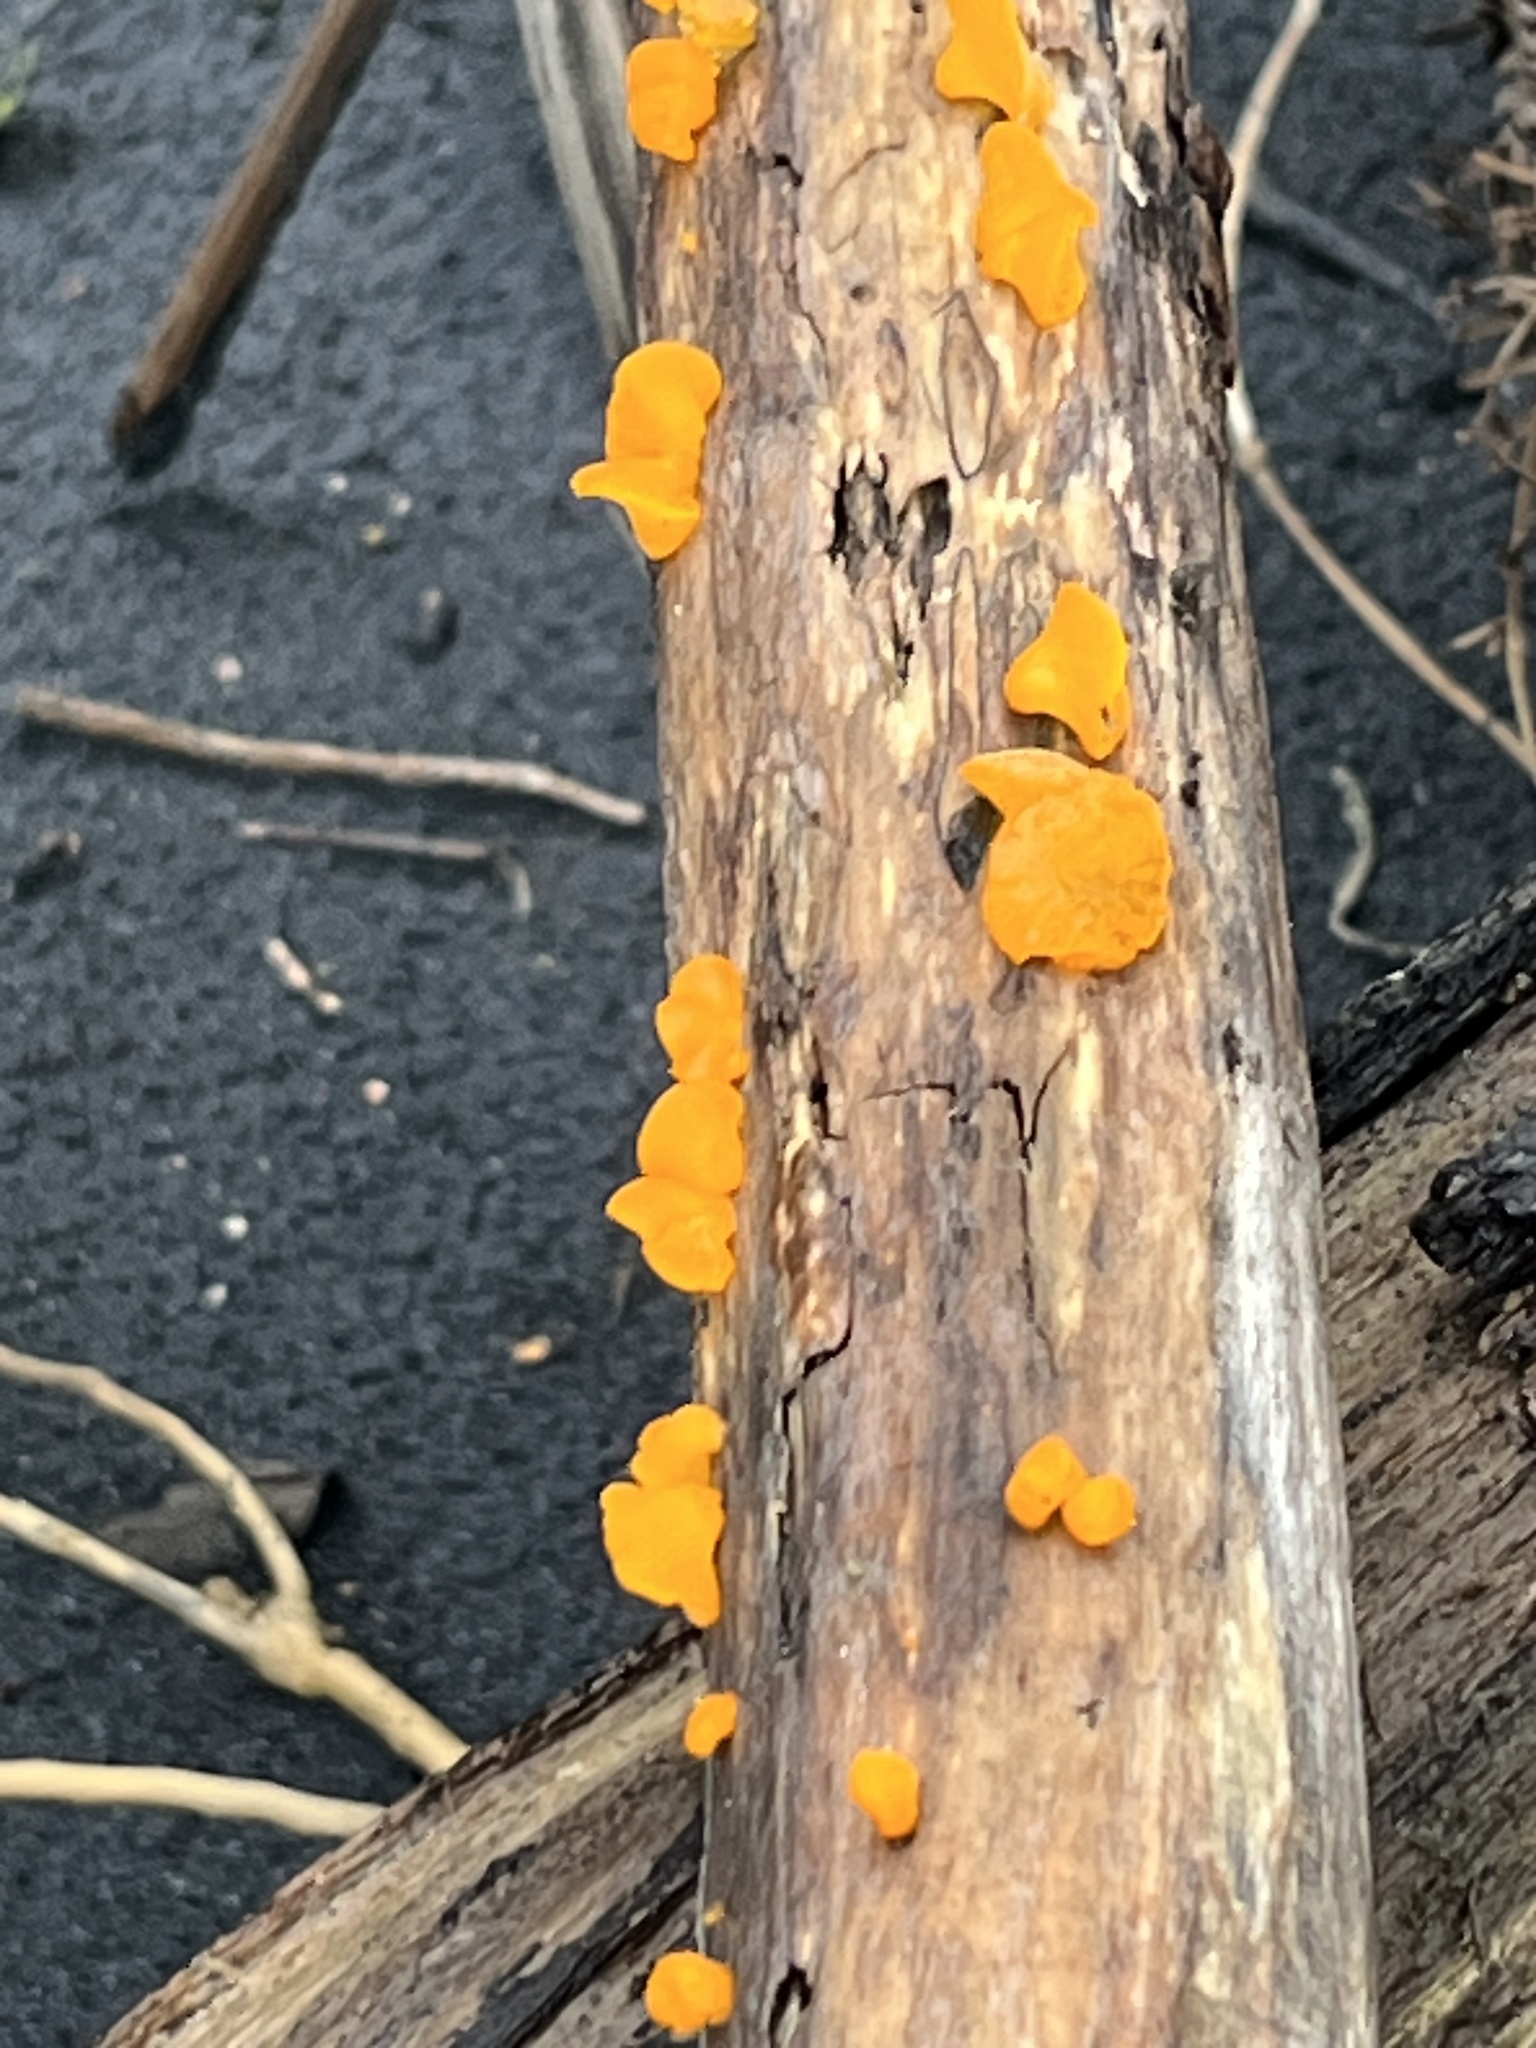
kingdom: Fungi
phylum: Basidiomycota
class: Dacrymycetes
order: Dacrymycetales
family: Dacrymycetaceae
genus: Heterotextus
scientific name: Heterotextus miltinus
